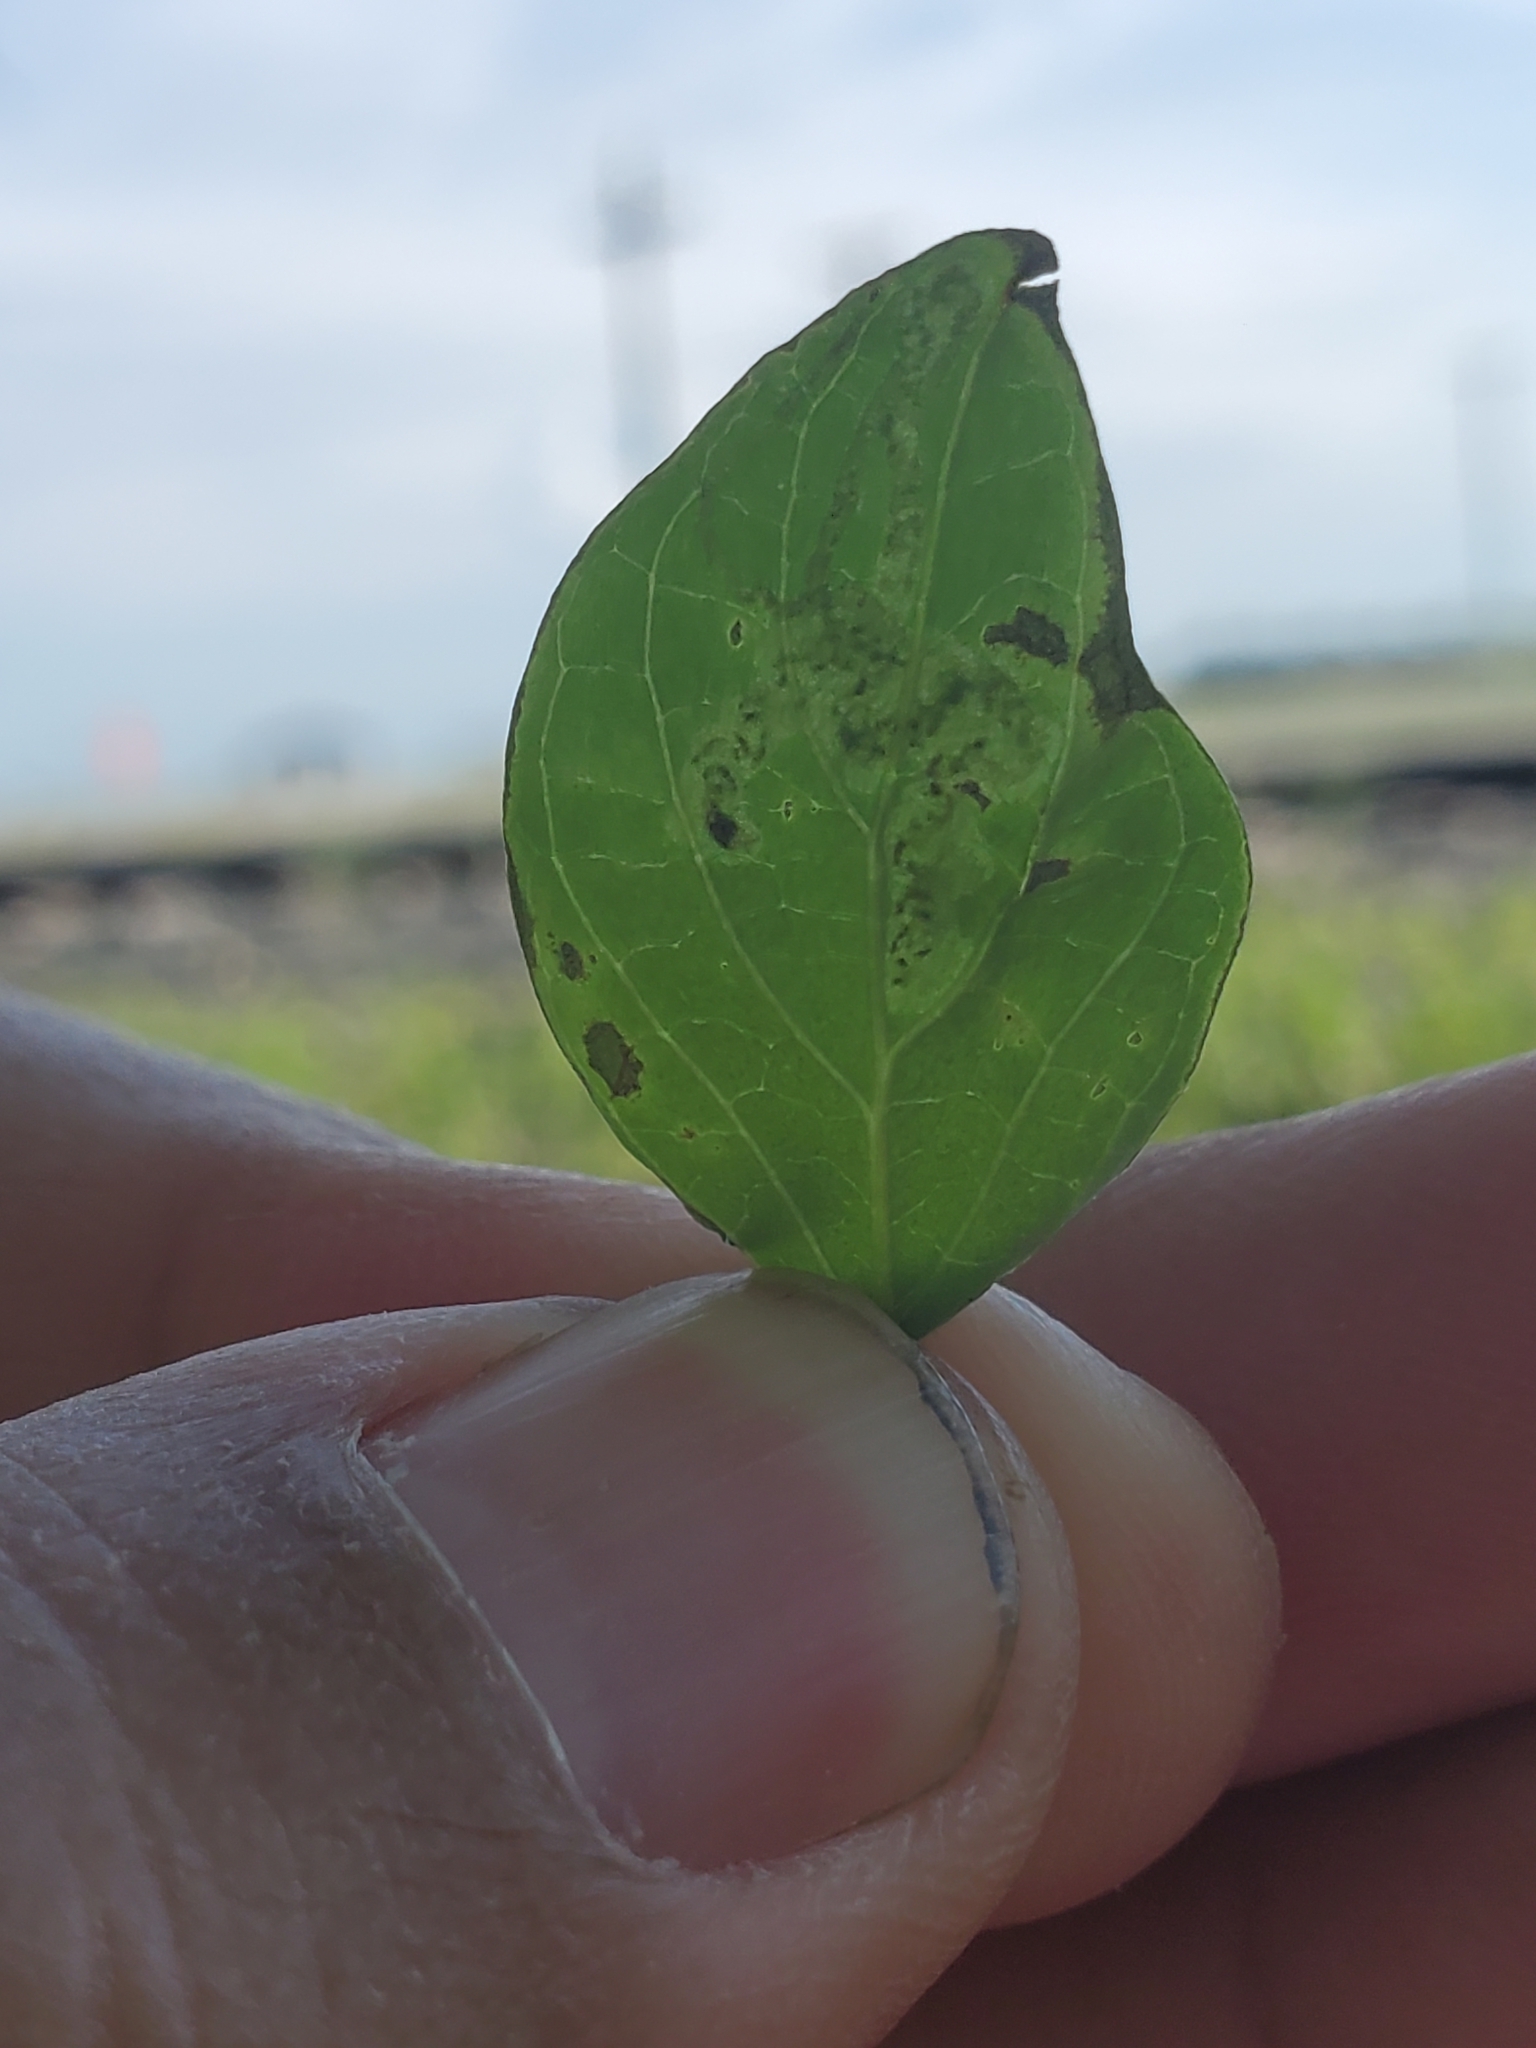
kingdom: Animalia
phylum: Arthropoda
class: Insecta
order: Diptera
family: Agromyzidae
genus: Phytomyza
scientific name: Phytomyza agromyzina
